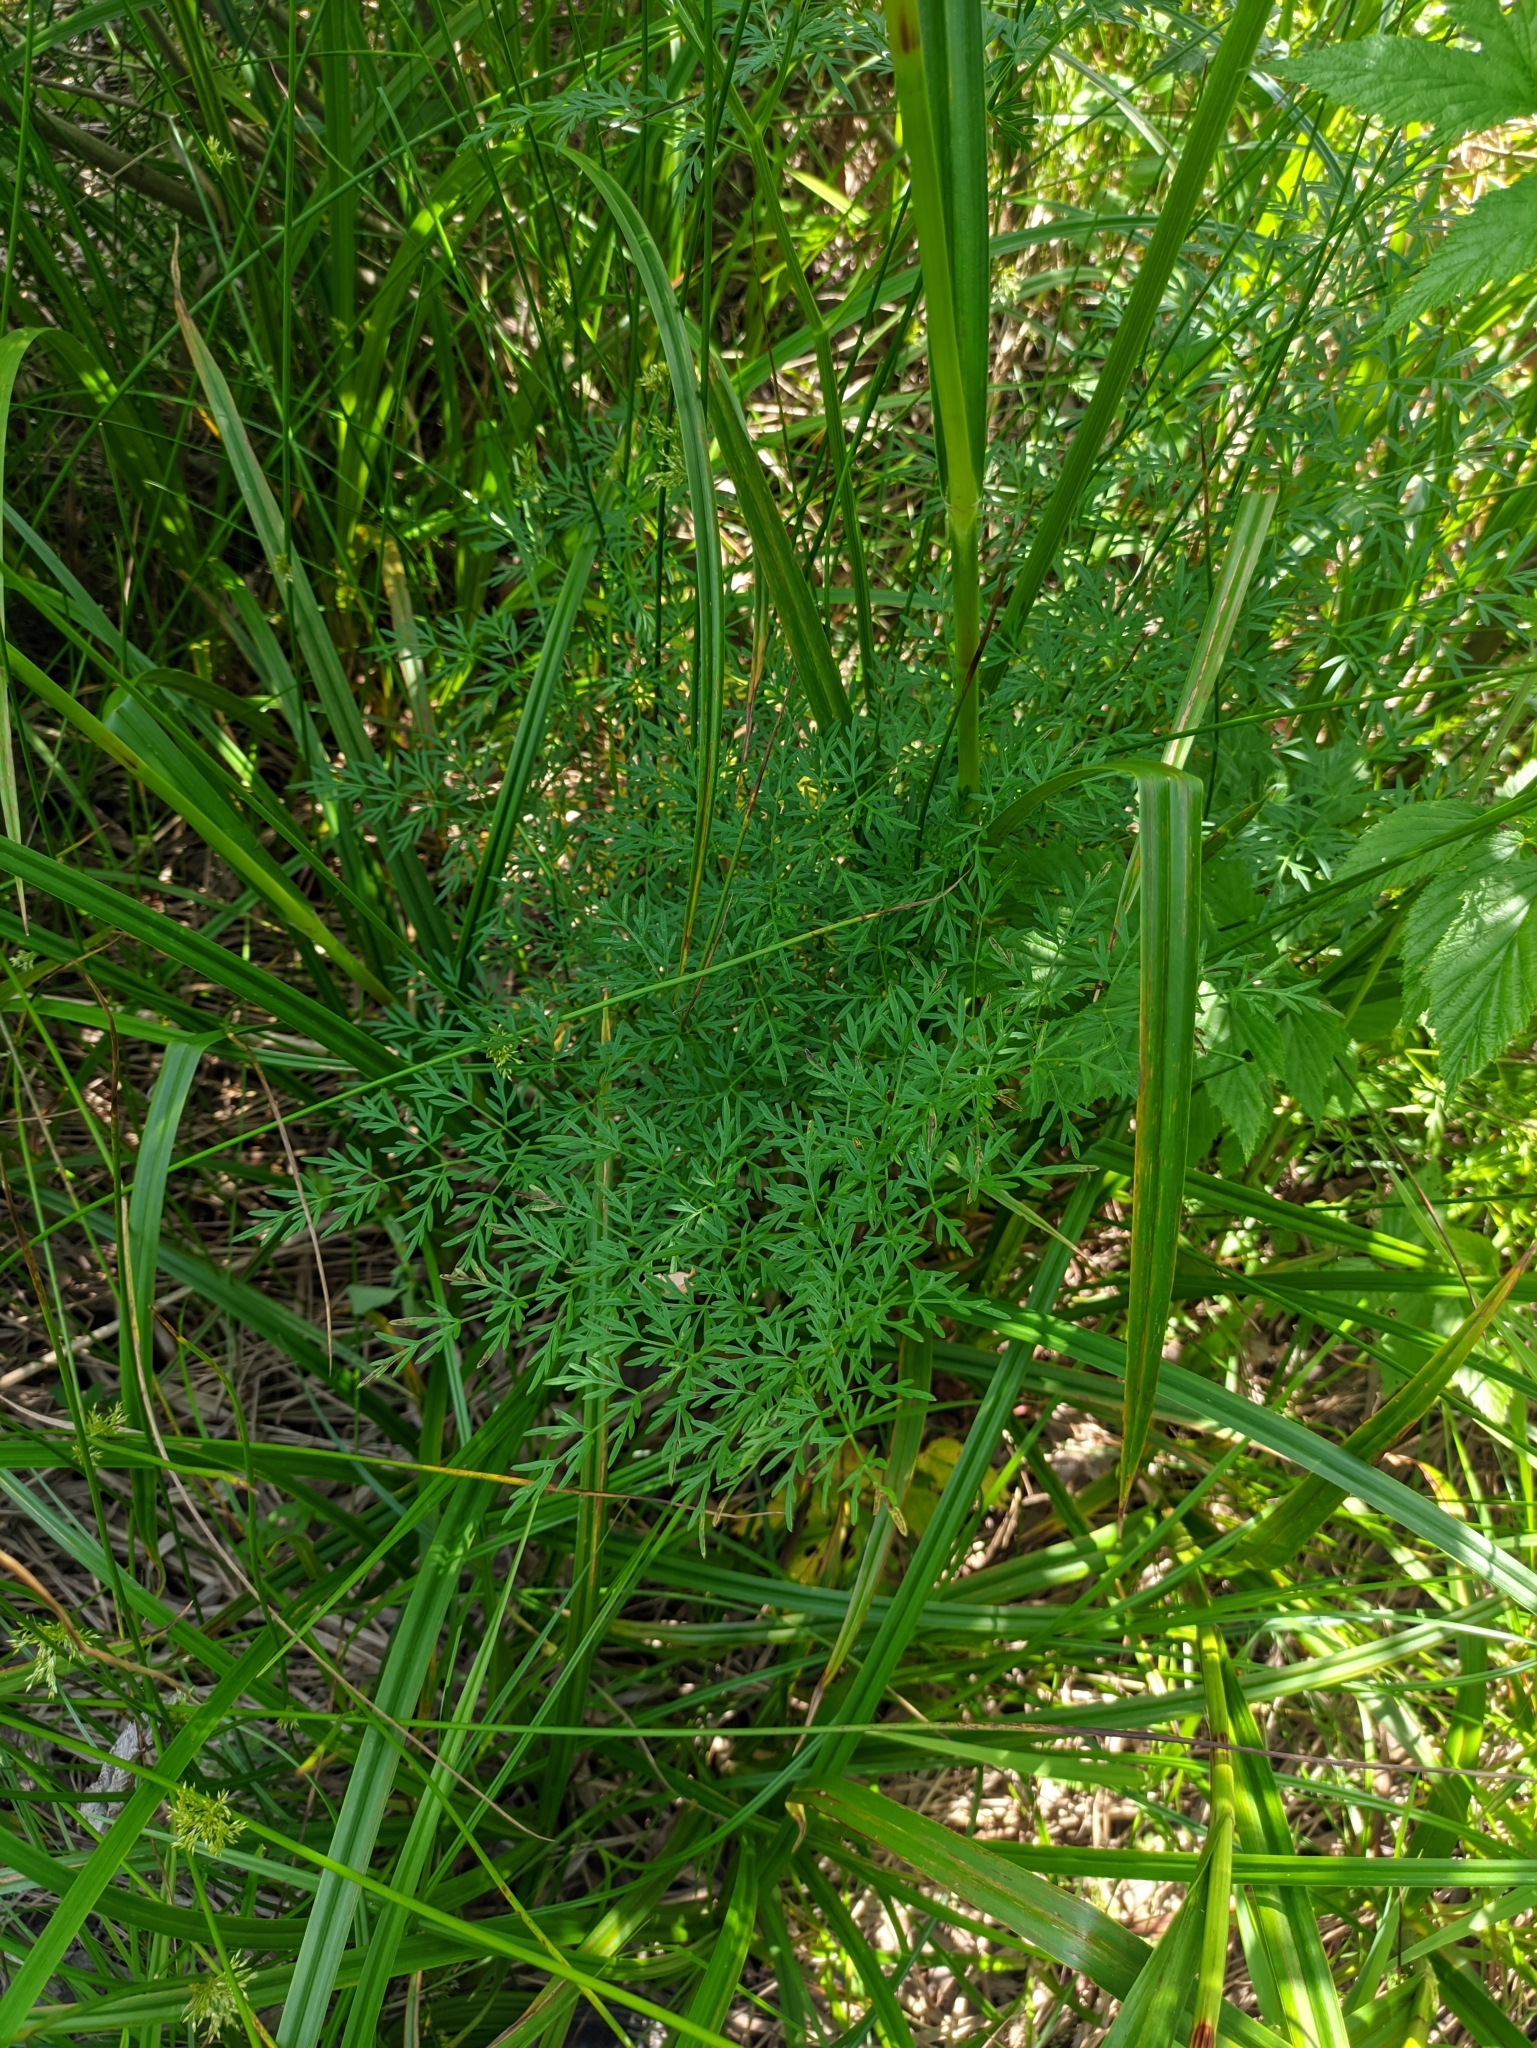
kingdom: Plantae
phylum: Tracheophyta
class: Magnoliopsida
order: Apiales
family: Apiaceae
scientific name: Apiaceae
